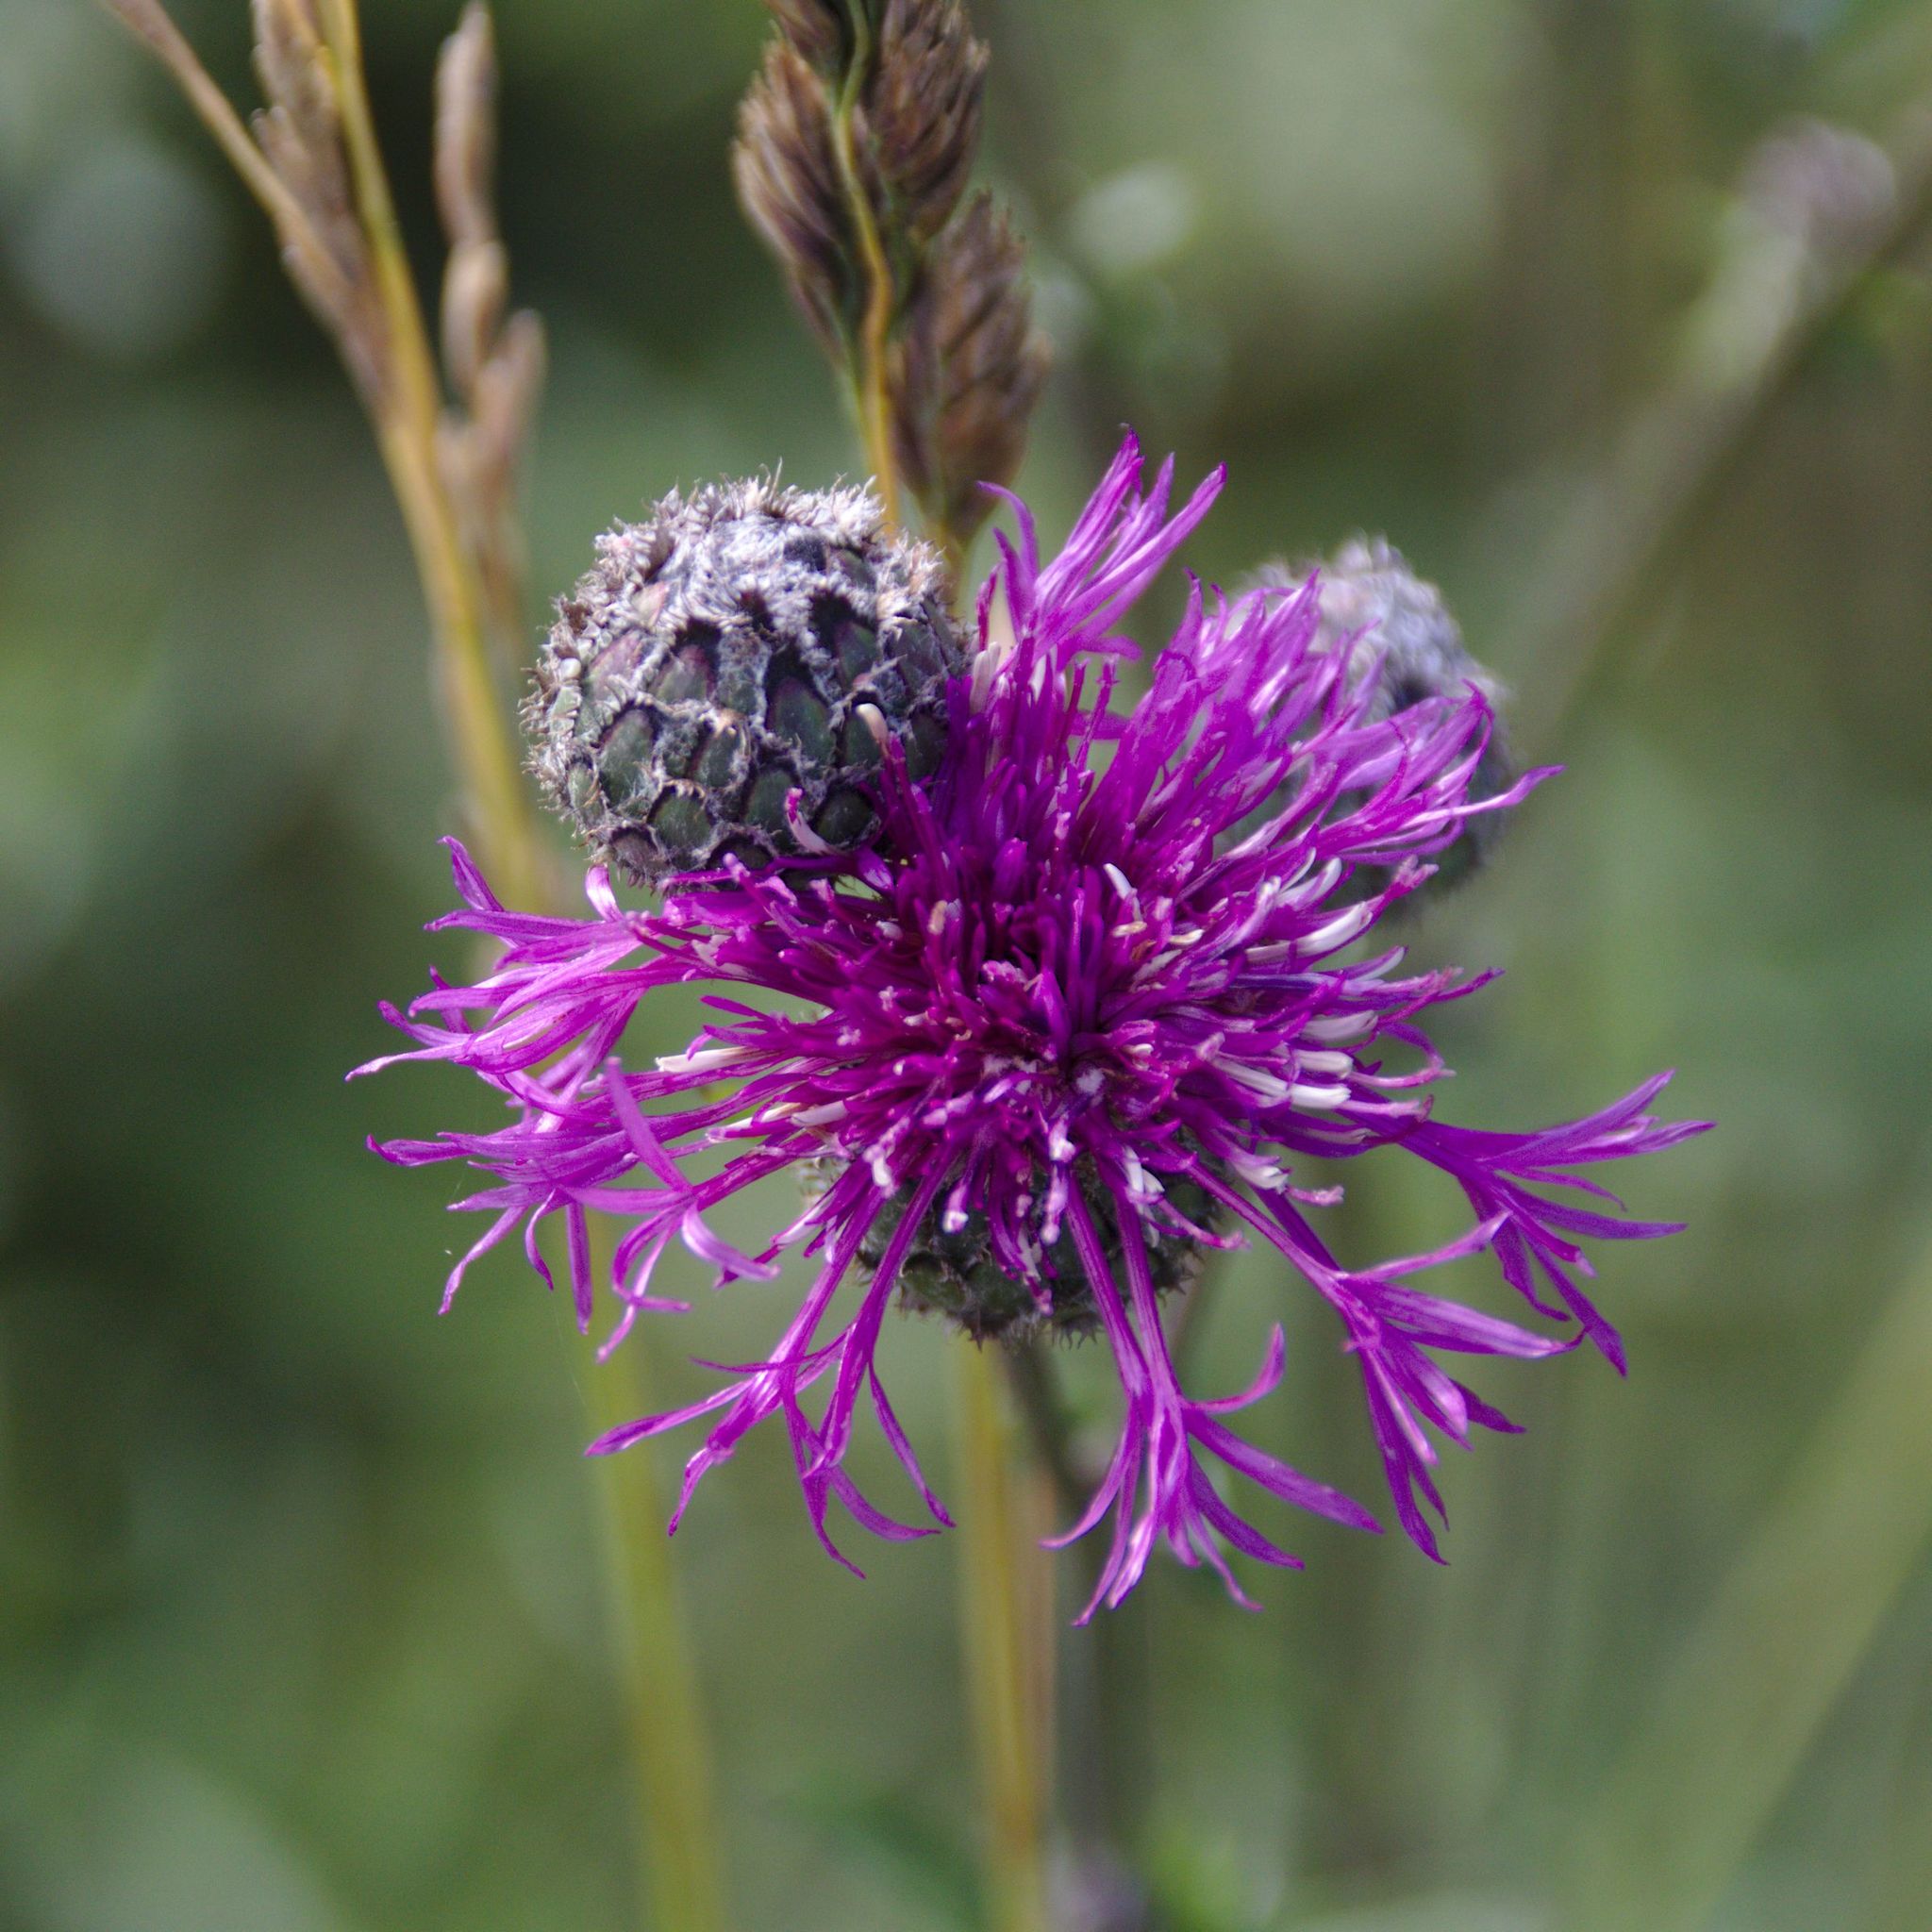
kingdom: Plantae
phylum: Tracheophyta
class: Magnoliopsida
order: Asterales
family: Asteraceae
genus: Centaurea
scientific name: Centaurea scabiosa
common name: Greater knapweed
